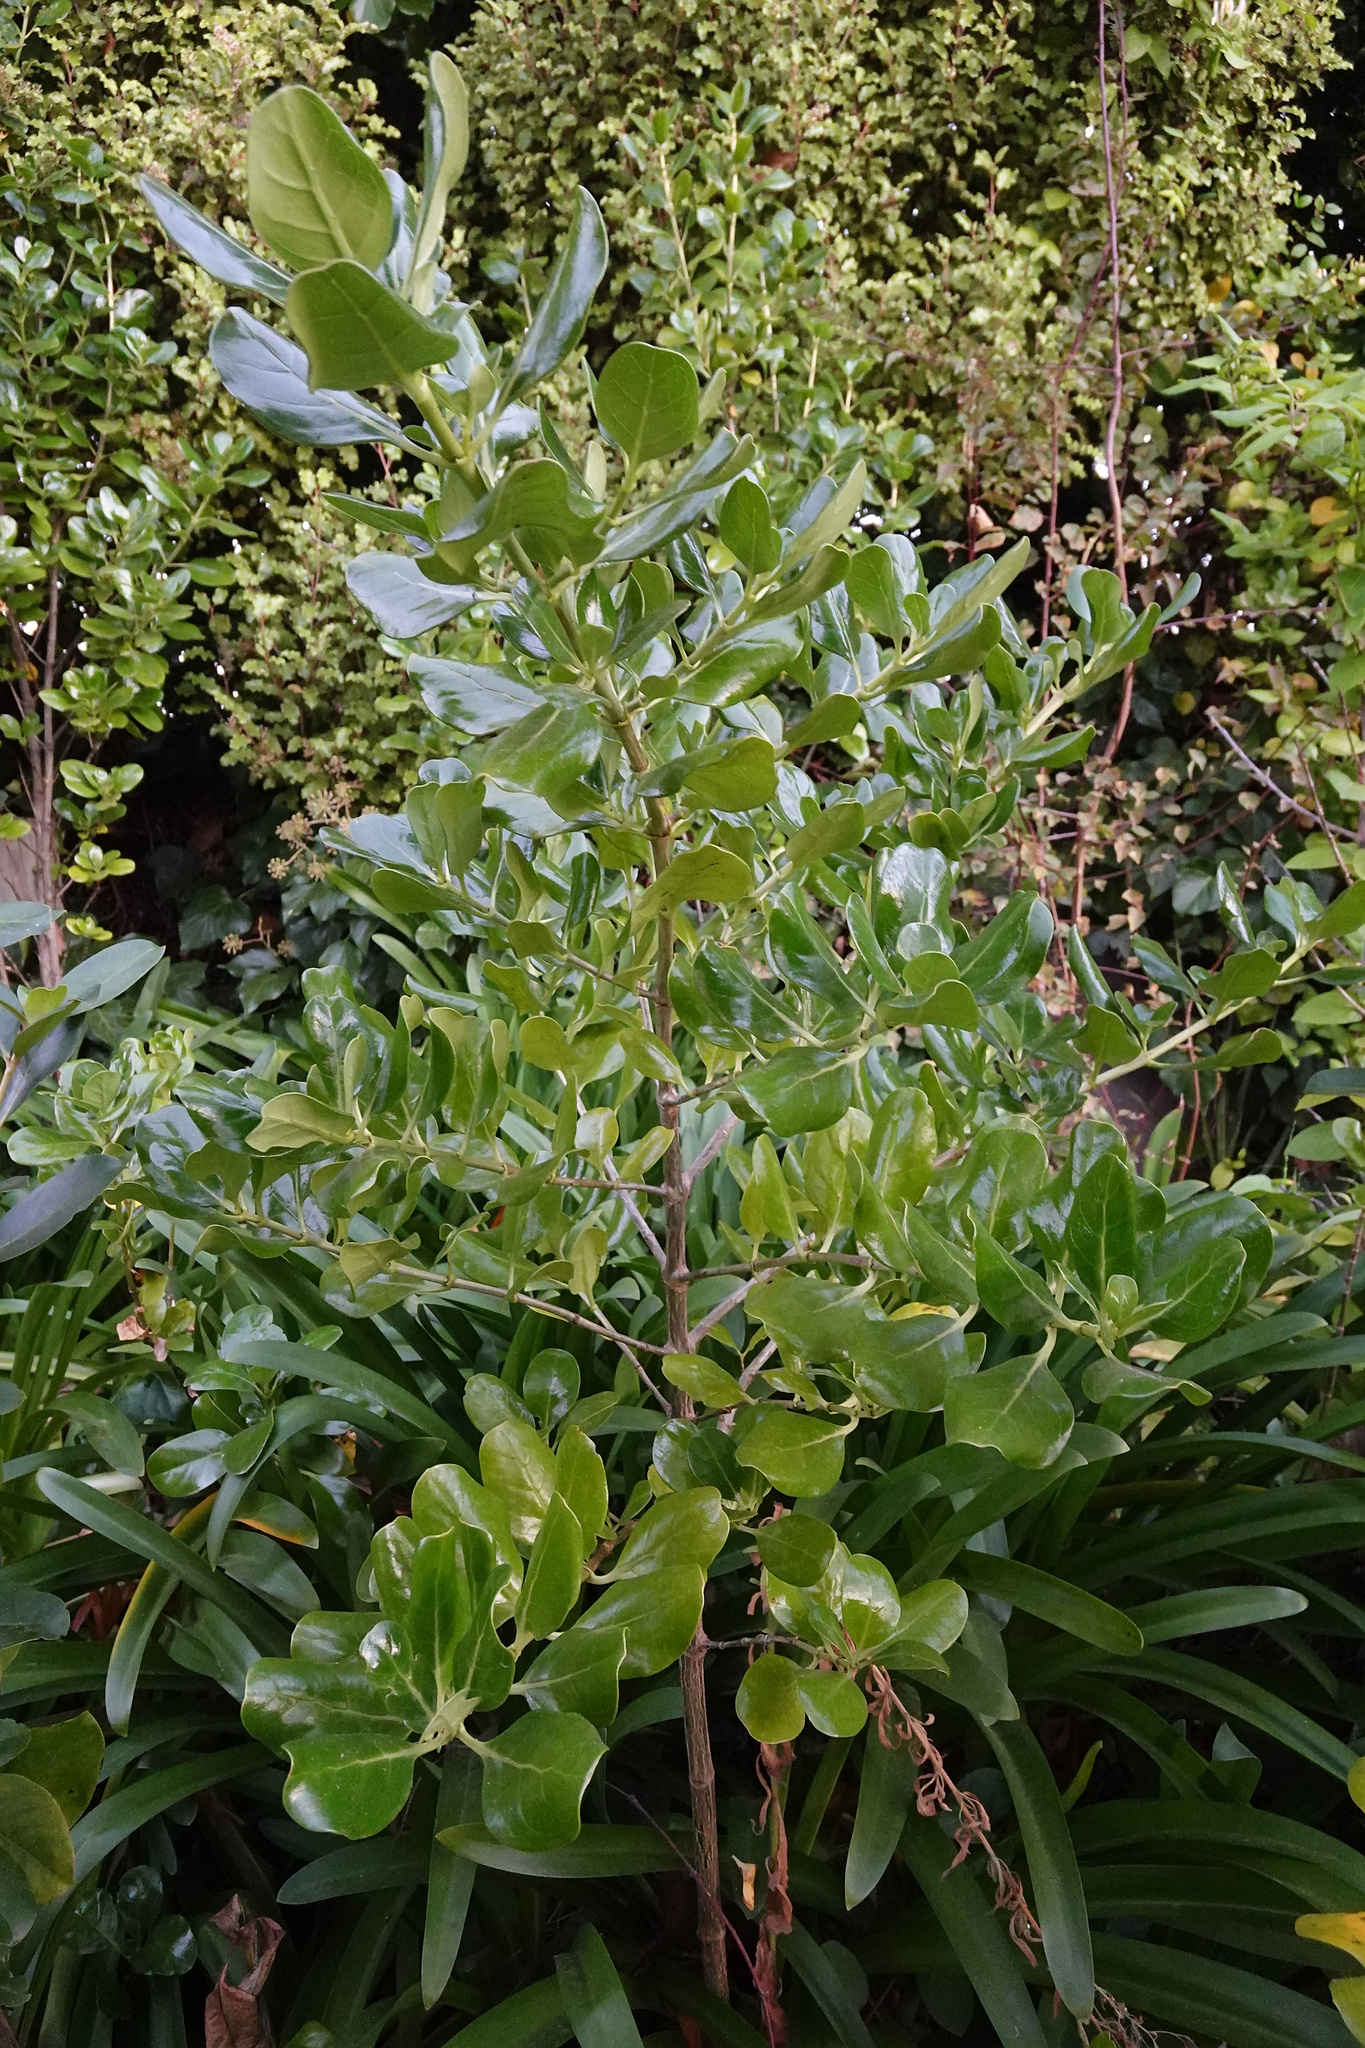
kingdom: Plantae
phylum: Tracheophyta
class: Magnoliopsida
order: Gentianales
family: Rubiaceae
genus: Coprosma
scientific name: Coprosma repens
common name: Tree bedstraw
